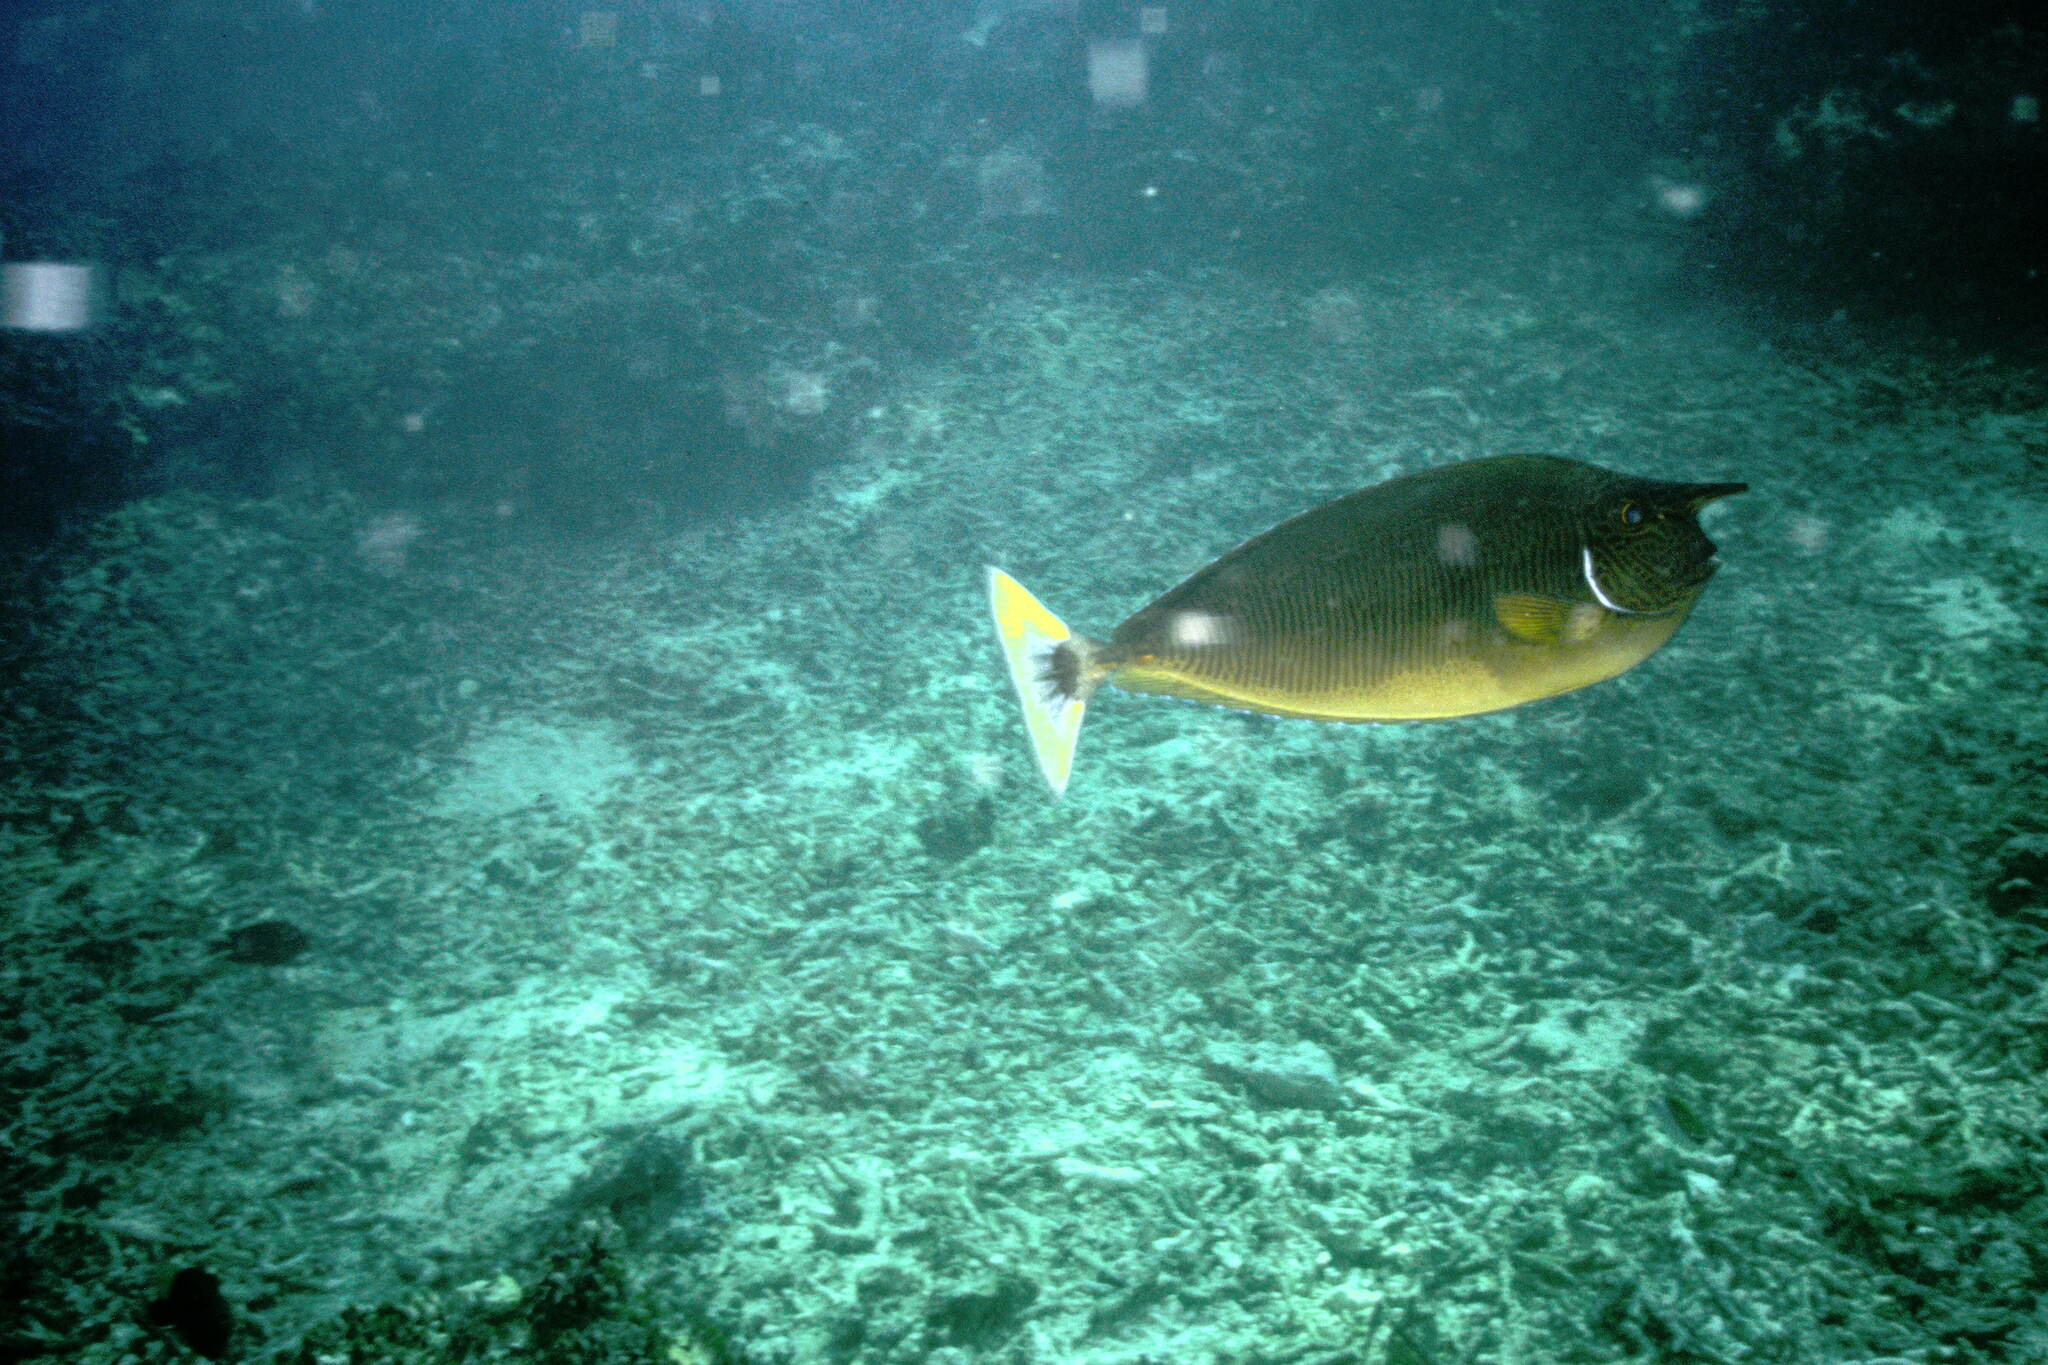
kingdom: Animalia
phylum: Chordata
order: Perciformes
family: Acanthuridae
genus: Naso
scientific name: Naso brevirostris
